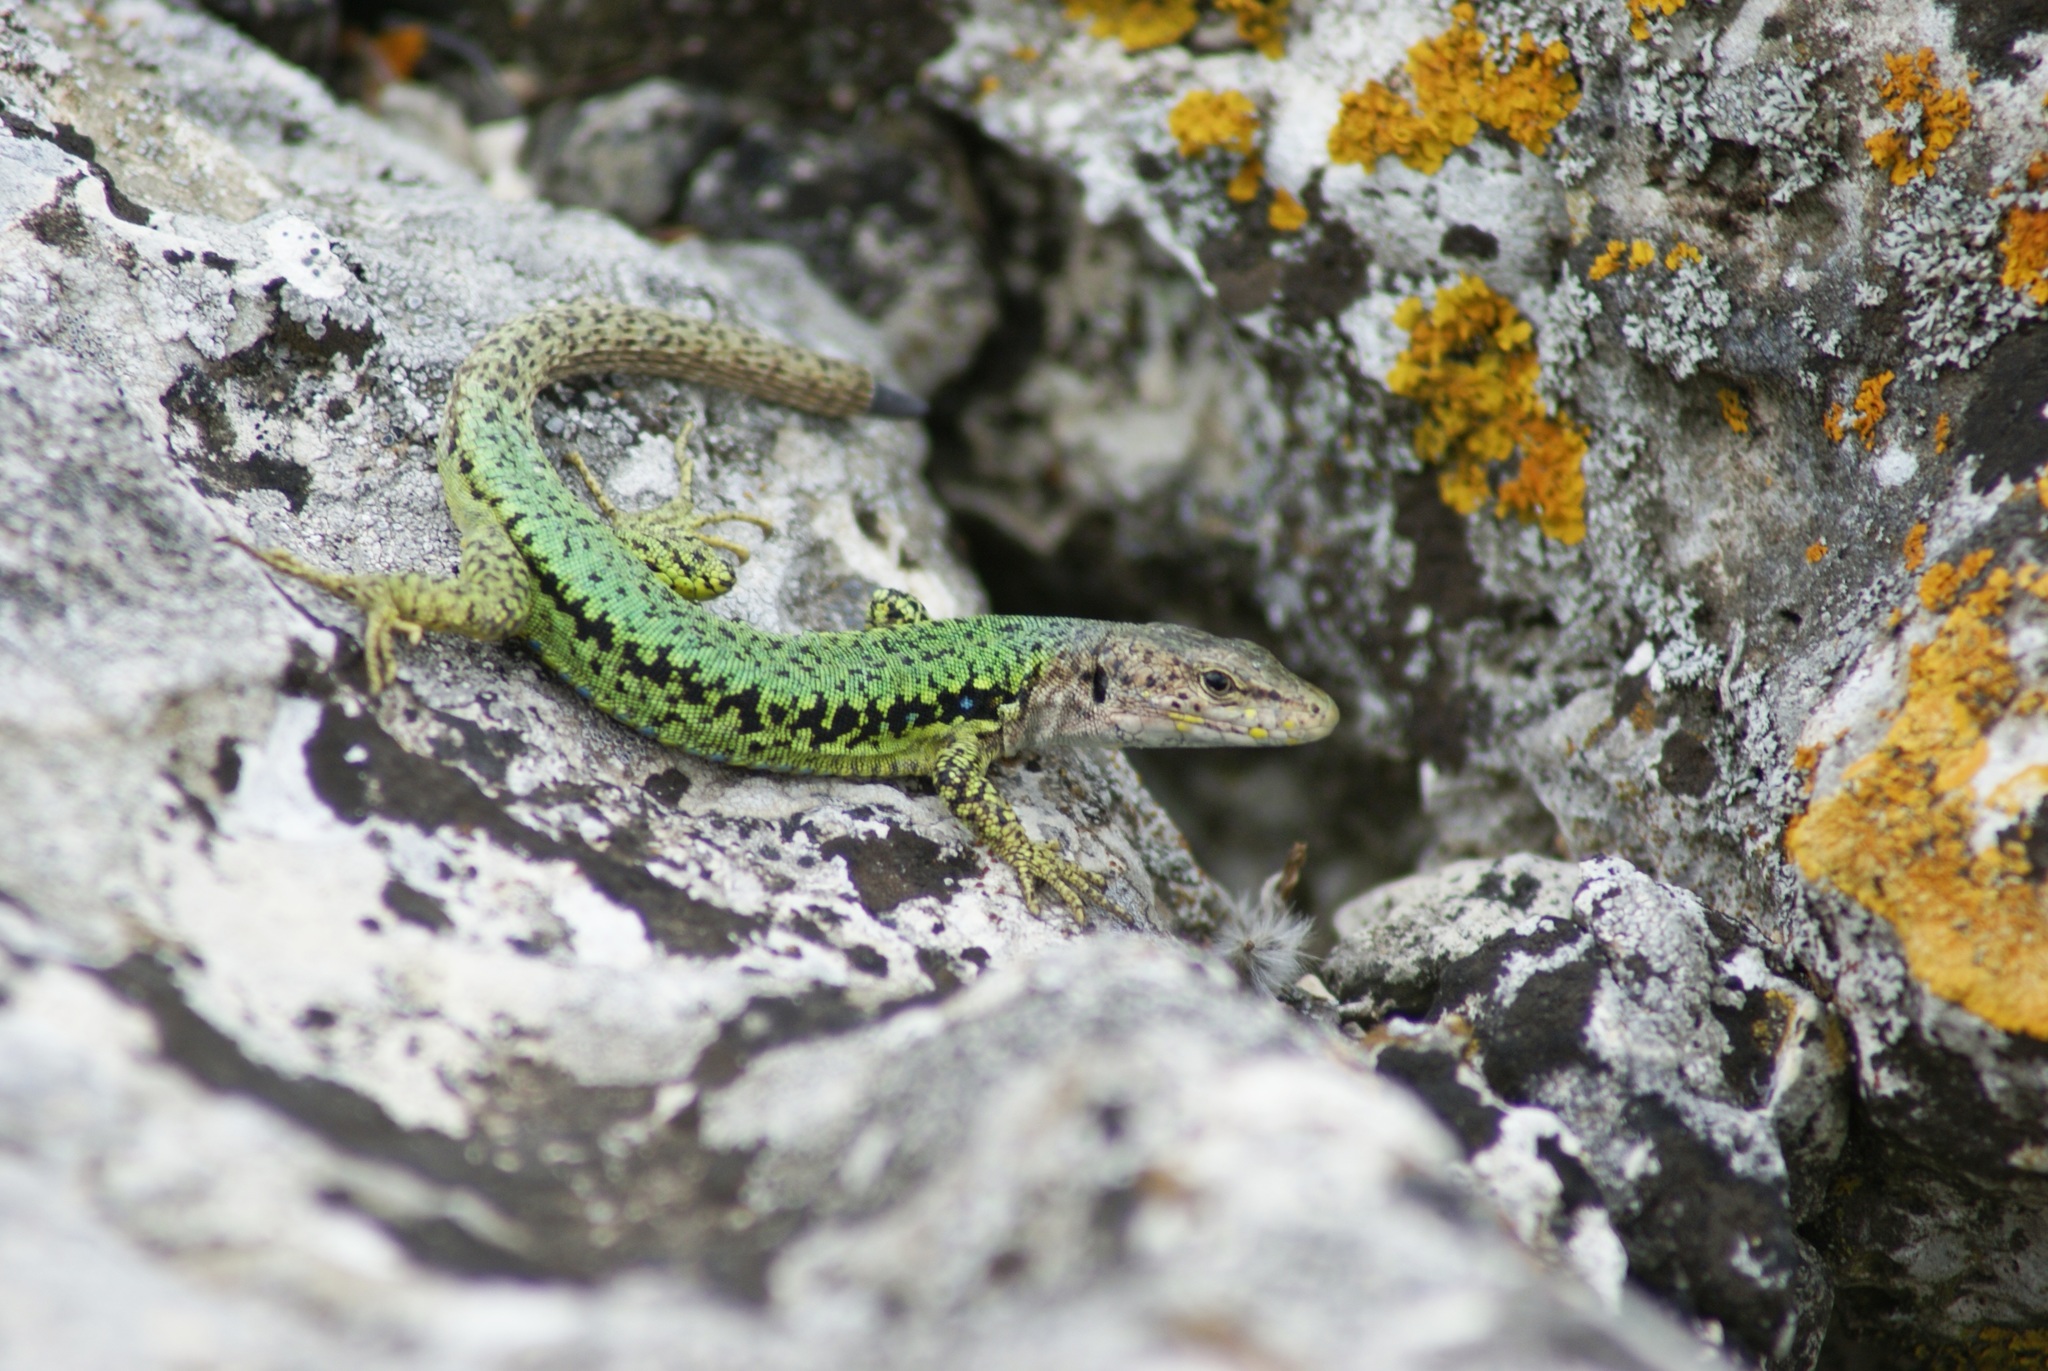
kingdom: Animalia
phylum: Chordata
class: Squamata
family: Lacertidae
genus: Darevskia
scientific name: Darevskia lindholmi
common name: Crimean rock lizard
